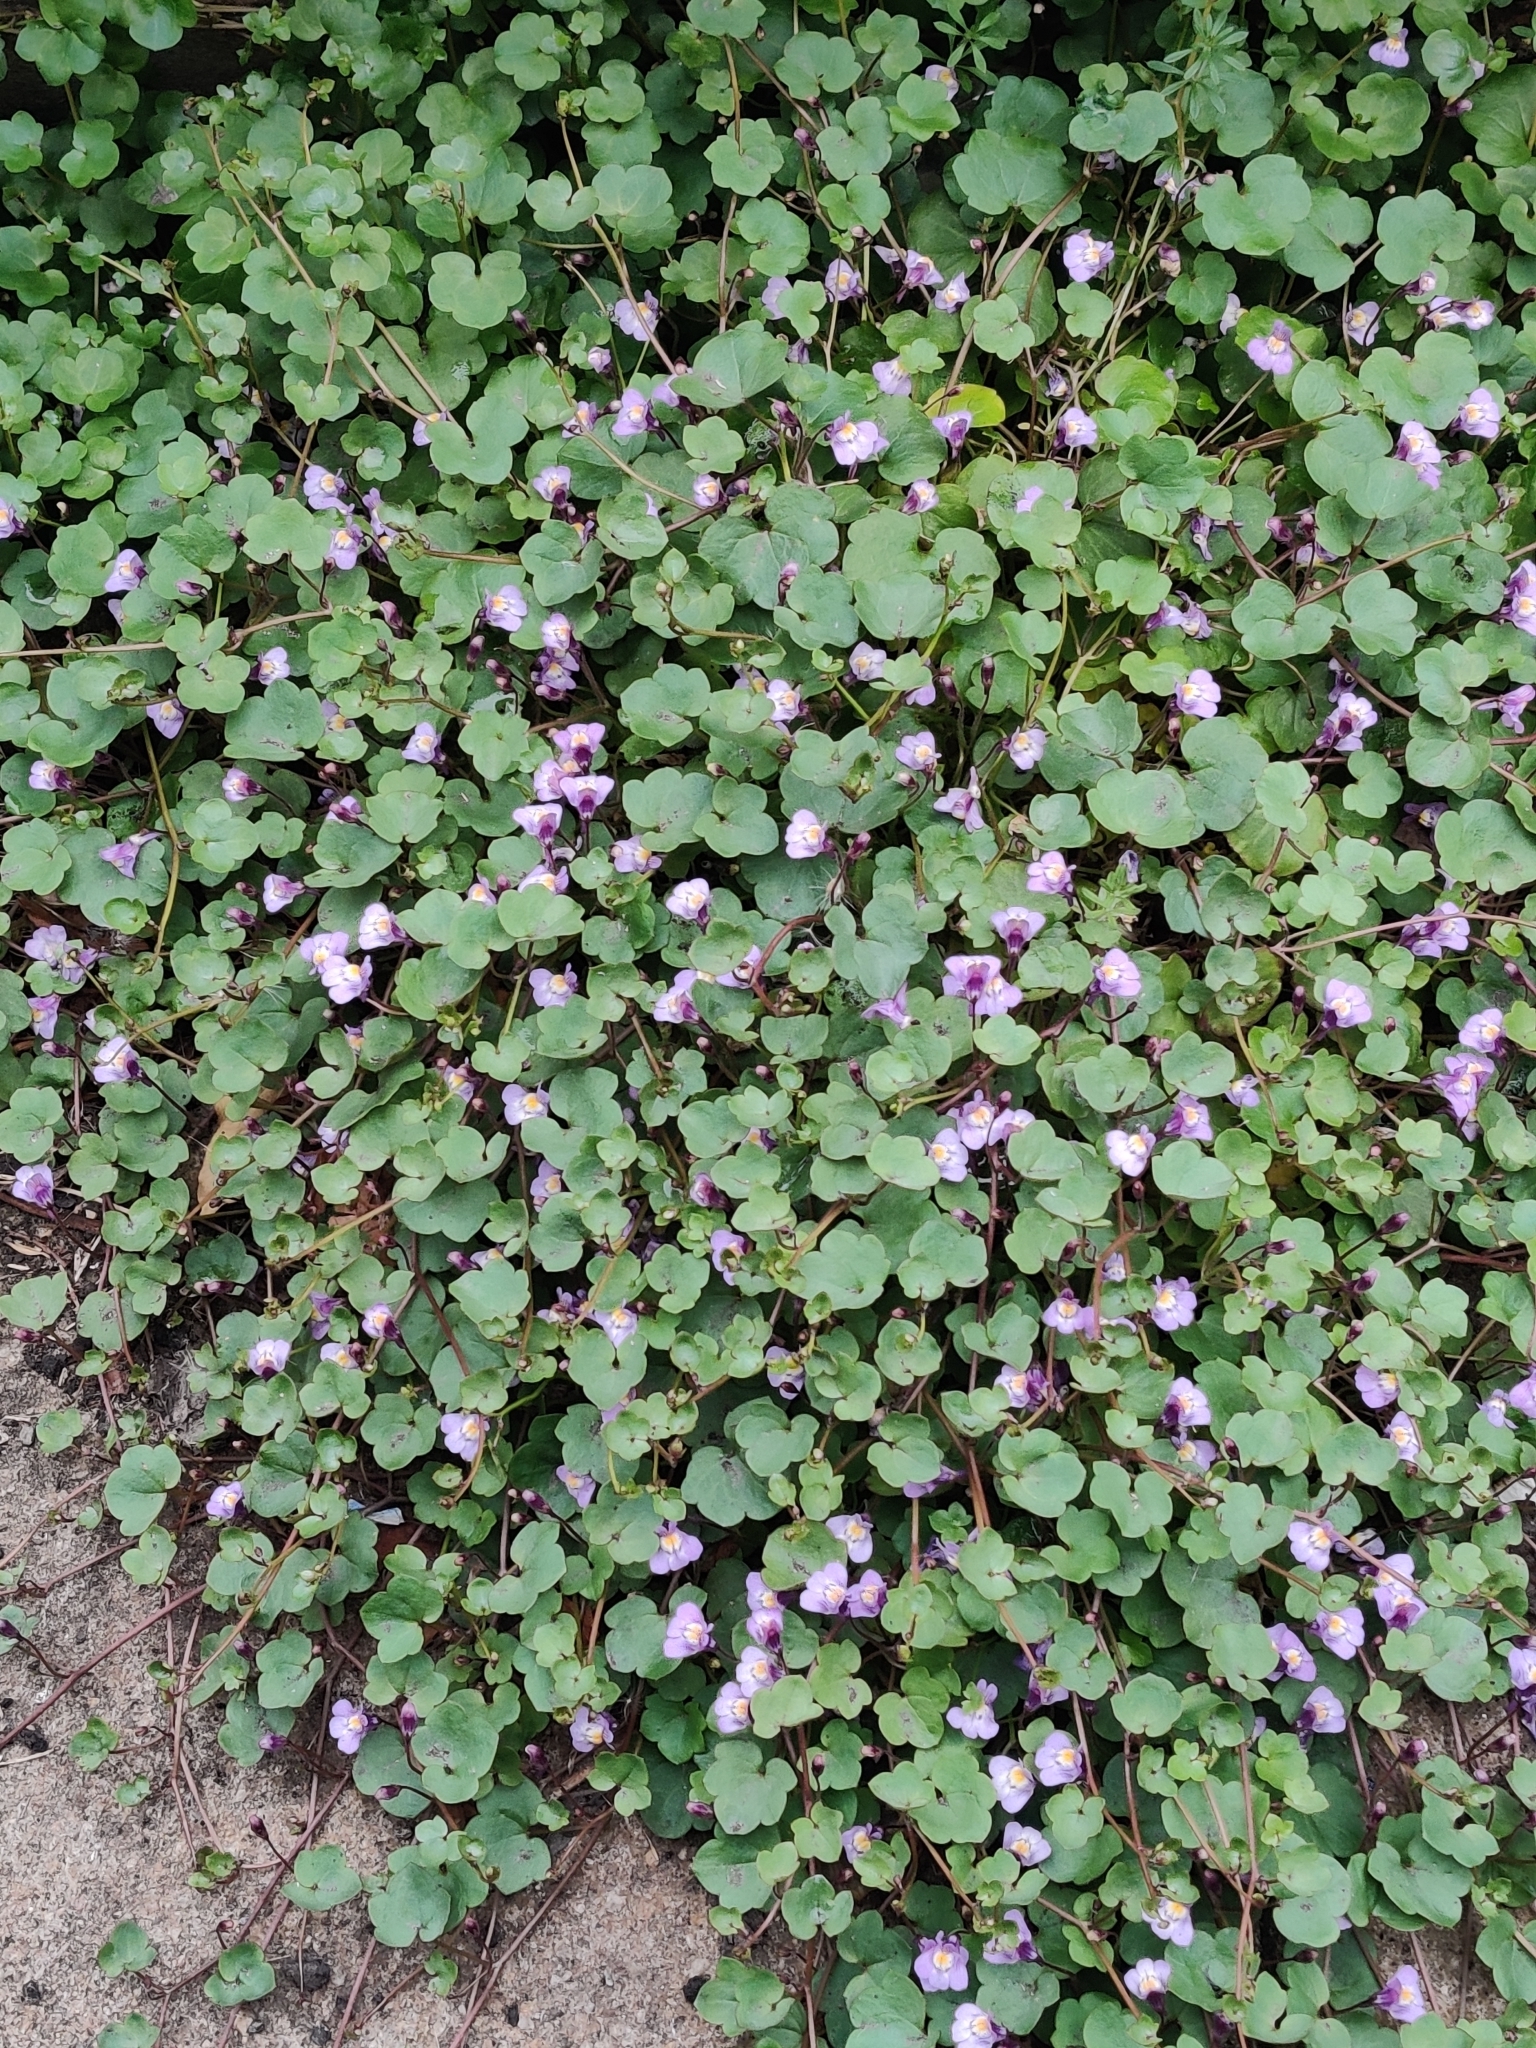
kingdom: Plantae
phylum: Tracheophyta
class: Magnoliopsida
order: Lamiales
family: Plantaginaceae
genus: Cymbalaria
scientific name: Cymbalaria muralis
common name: Ivy-leaved toadflax
